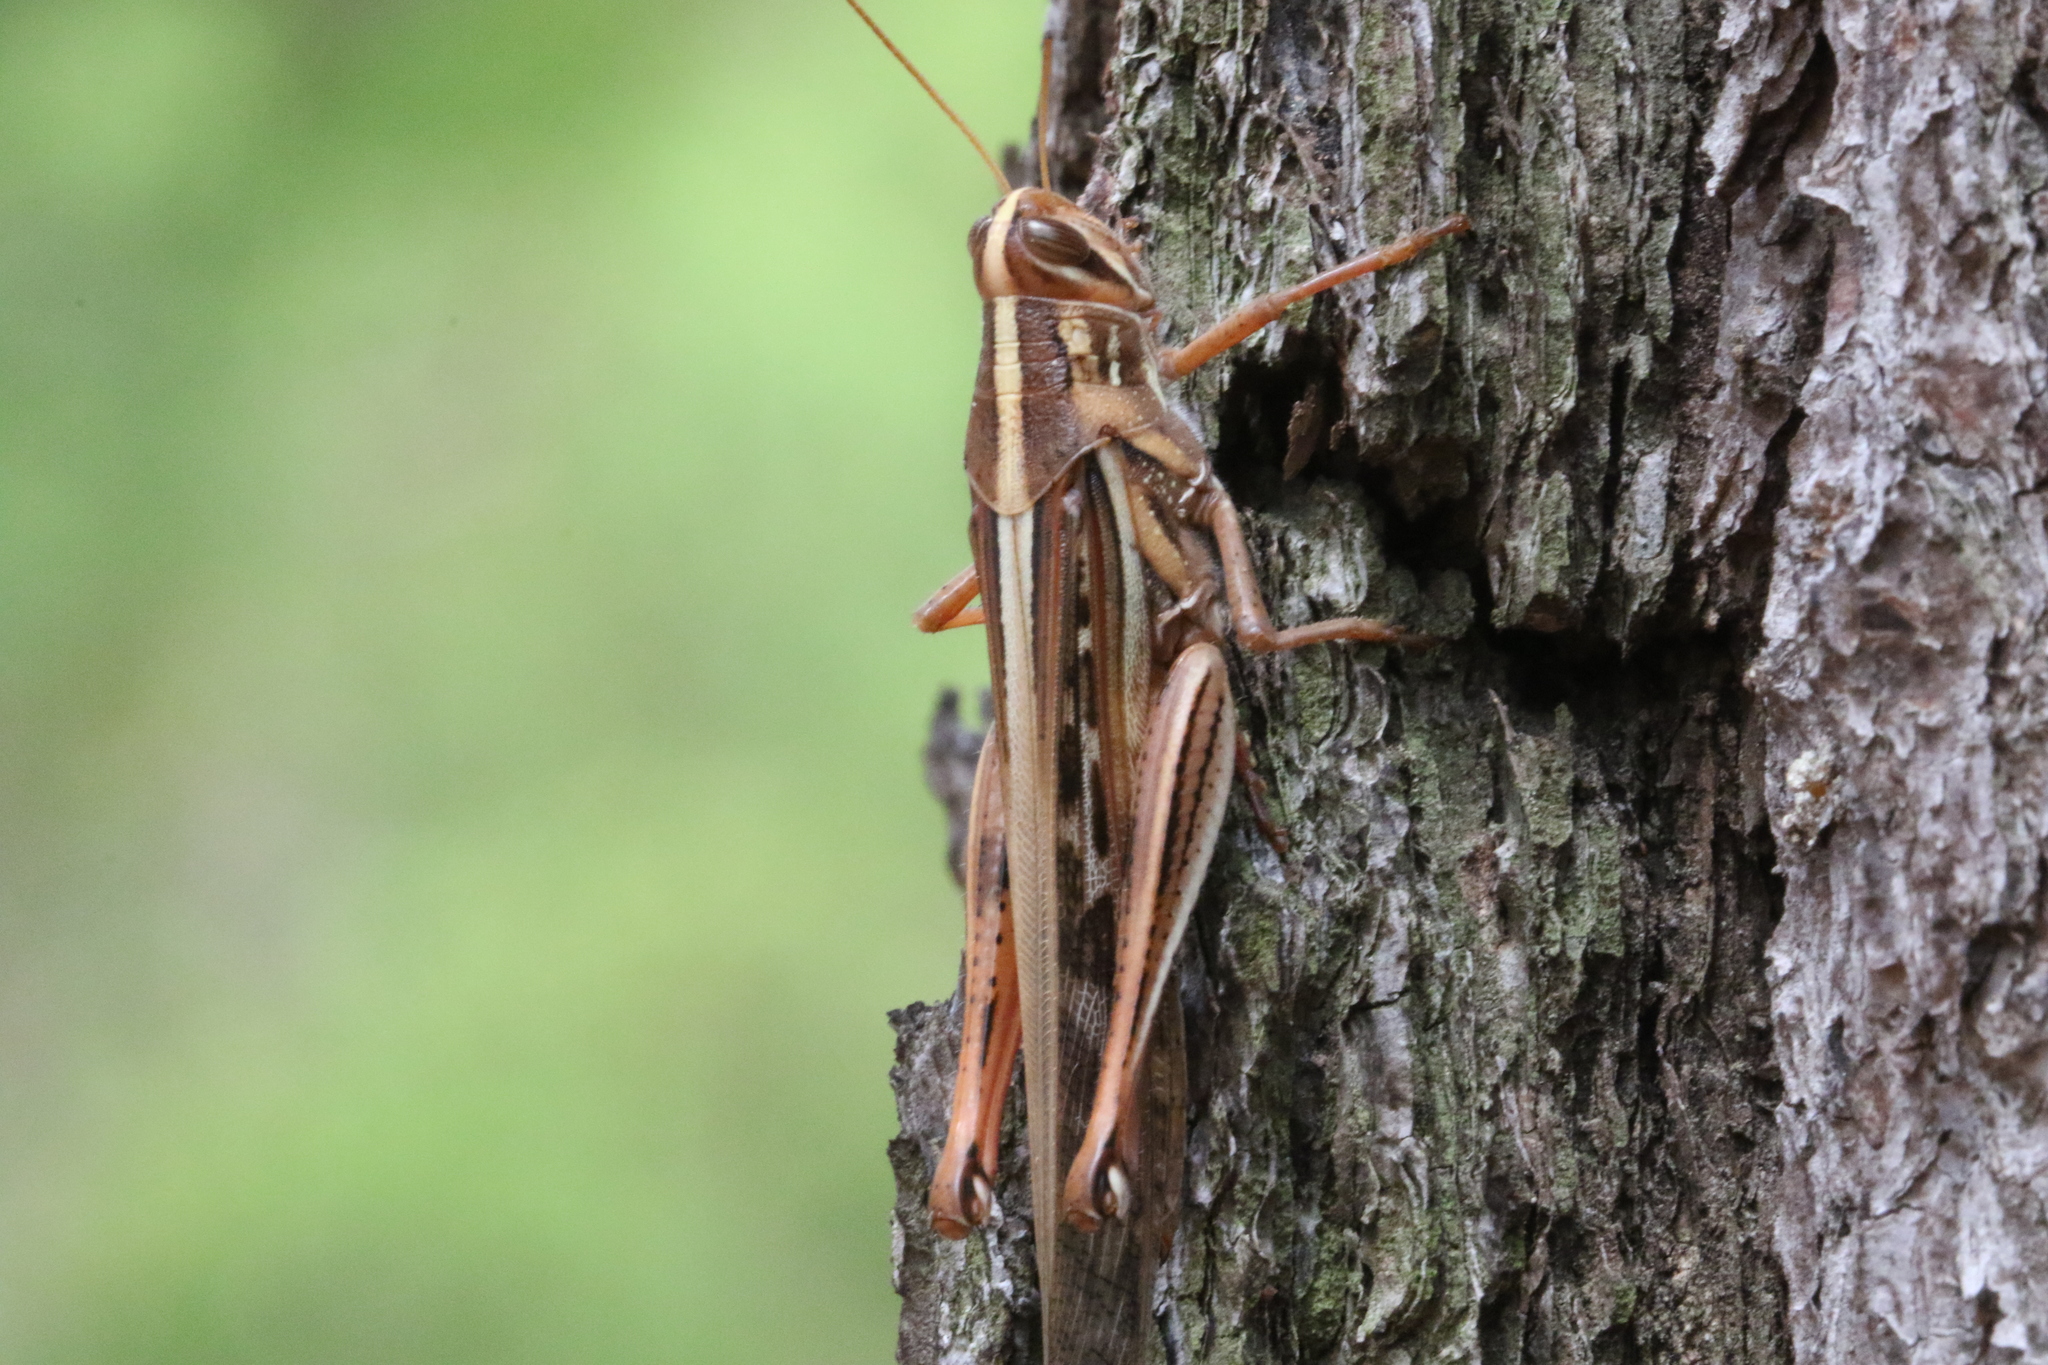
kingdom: Animalia
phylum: Arthropoda
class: Insecta
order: Orthoptera
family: Acrididae
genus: Schistocerca
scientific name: Schistocerca americana
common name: American bird locust
